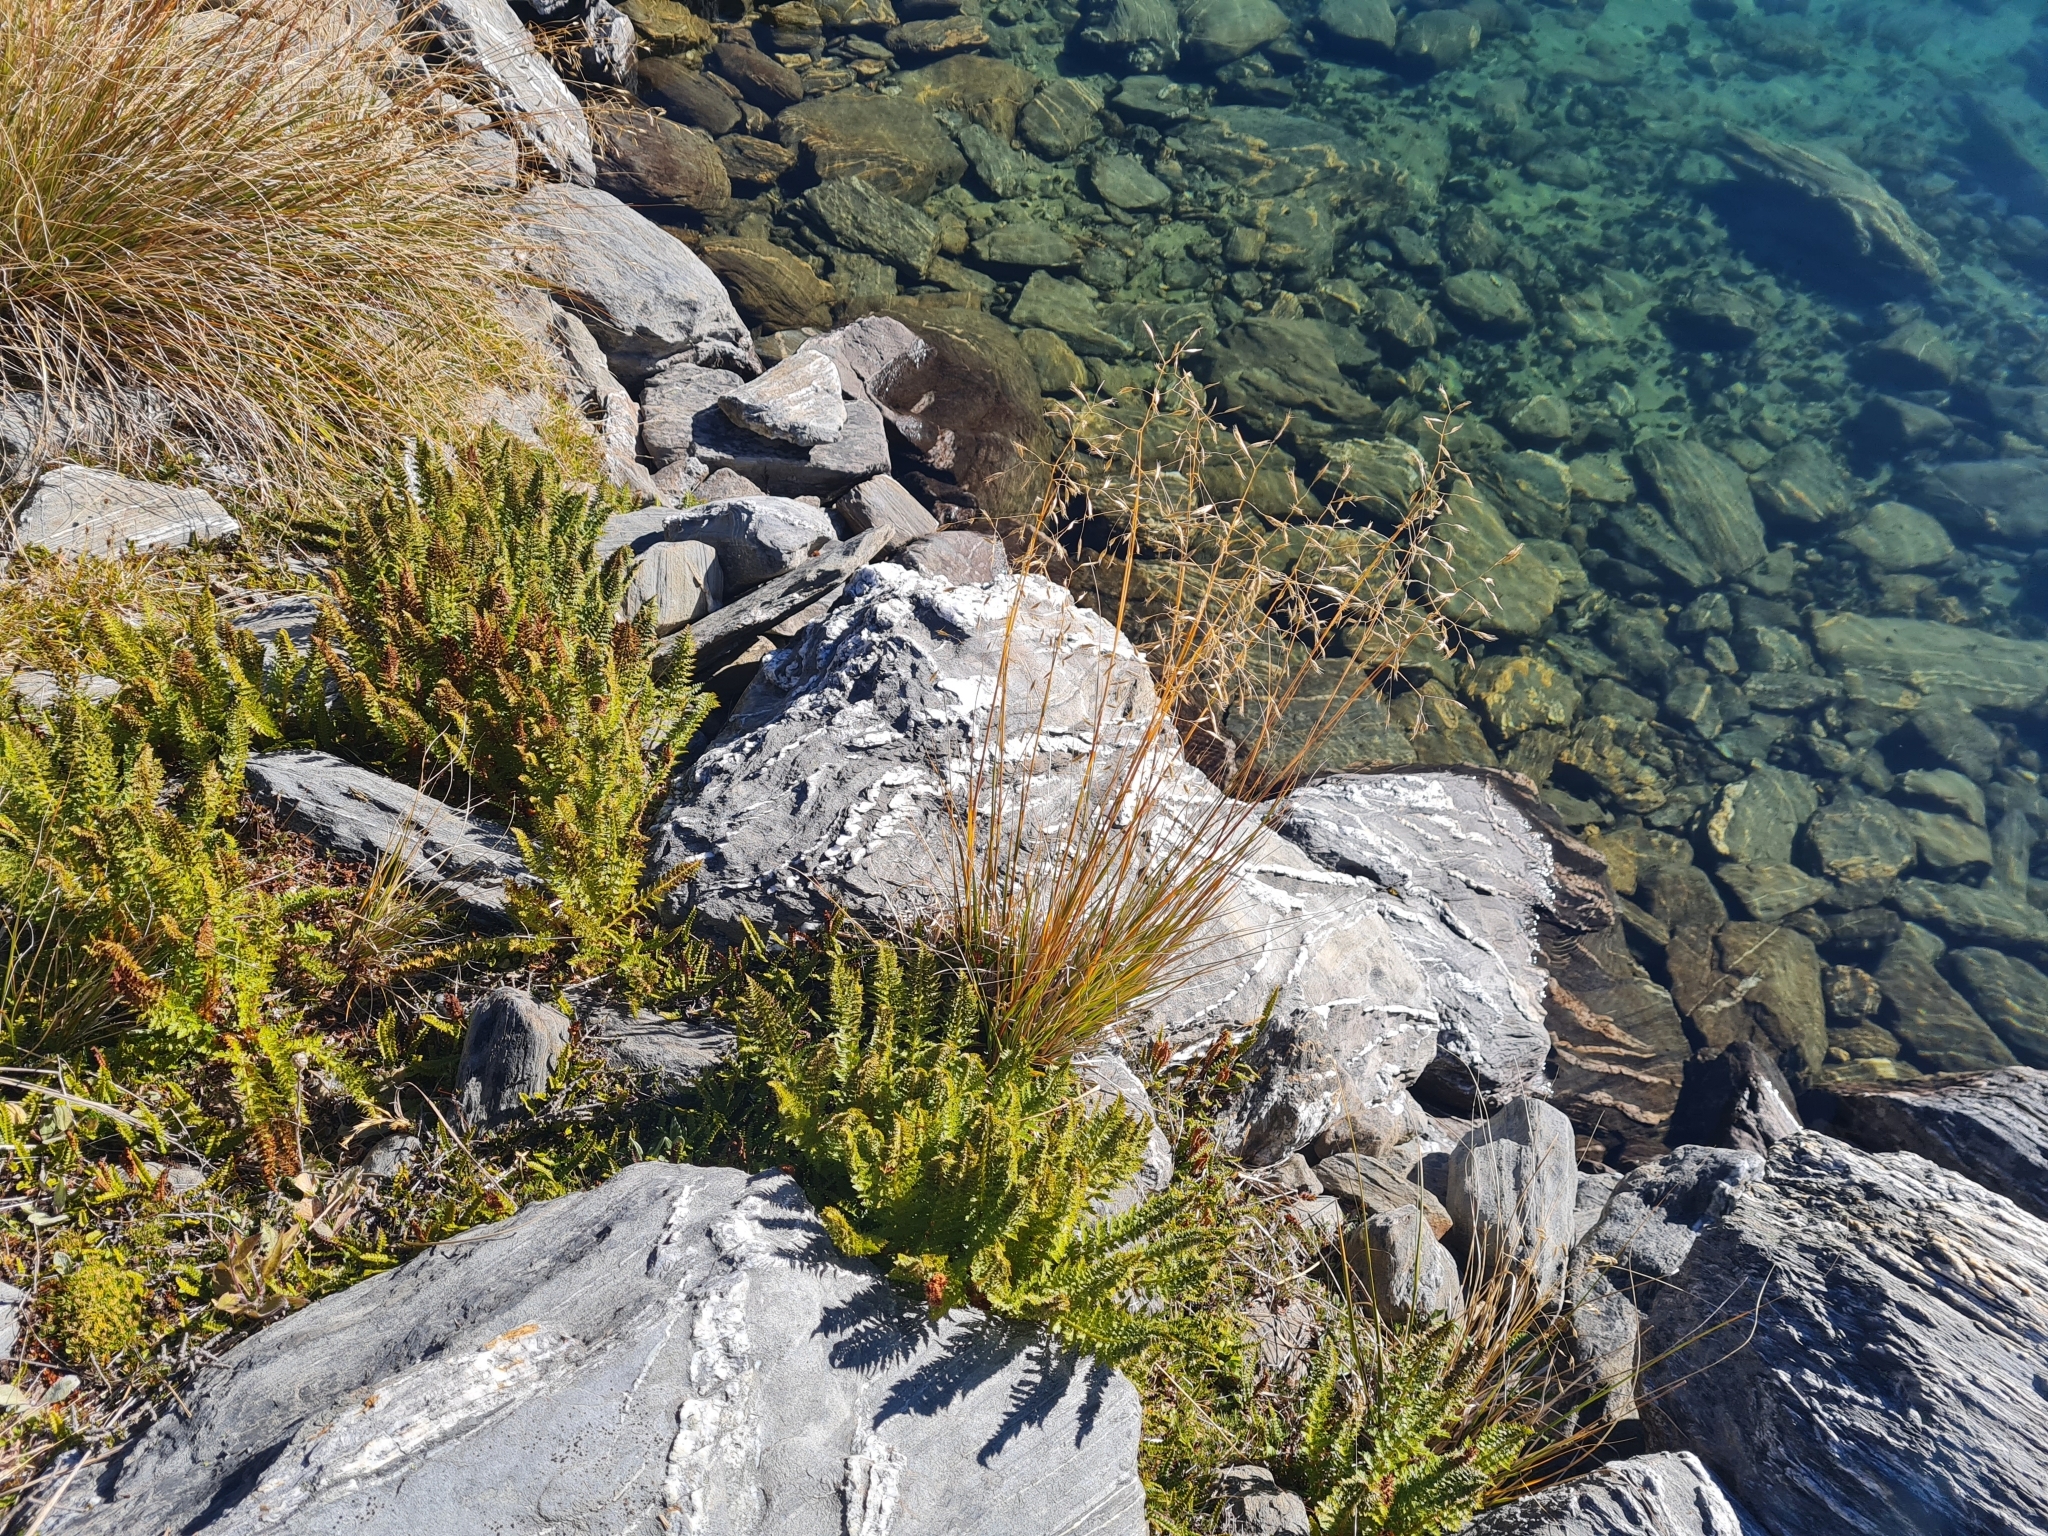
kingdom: Plantae
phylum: Tracheophyta
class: Polypodiopsida
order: Polypodiales
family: Dryopteridaceae
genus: Polystichum
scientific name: Polystichum cystostegia
